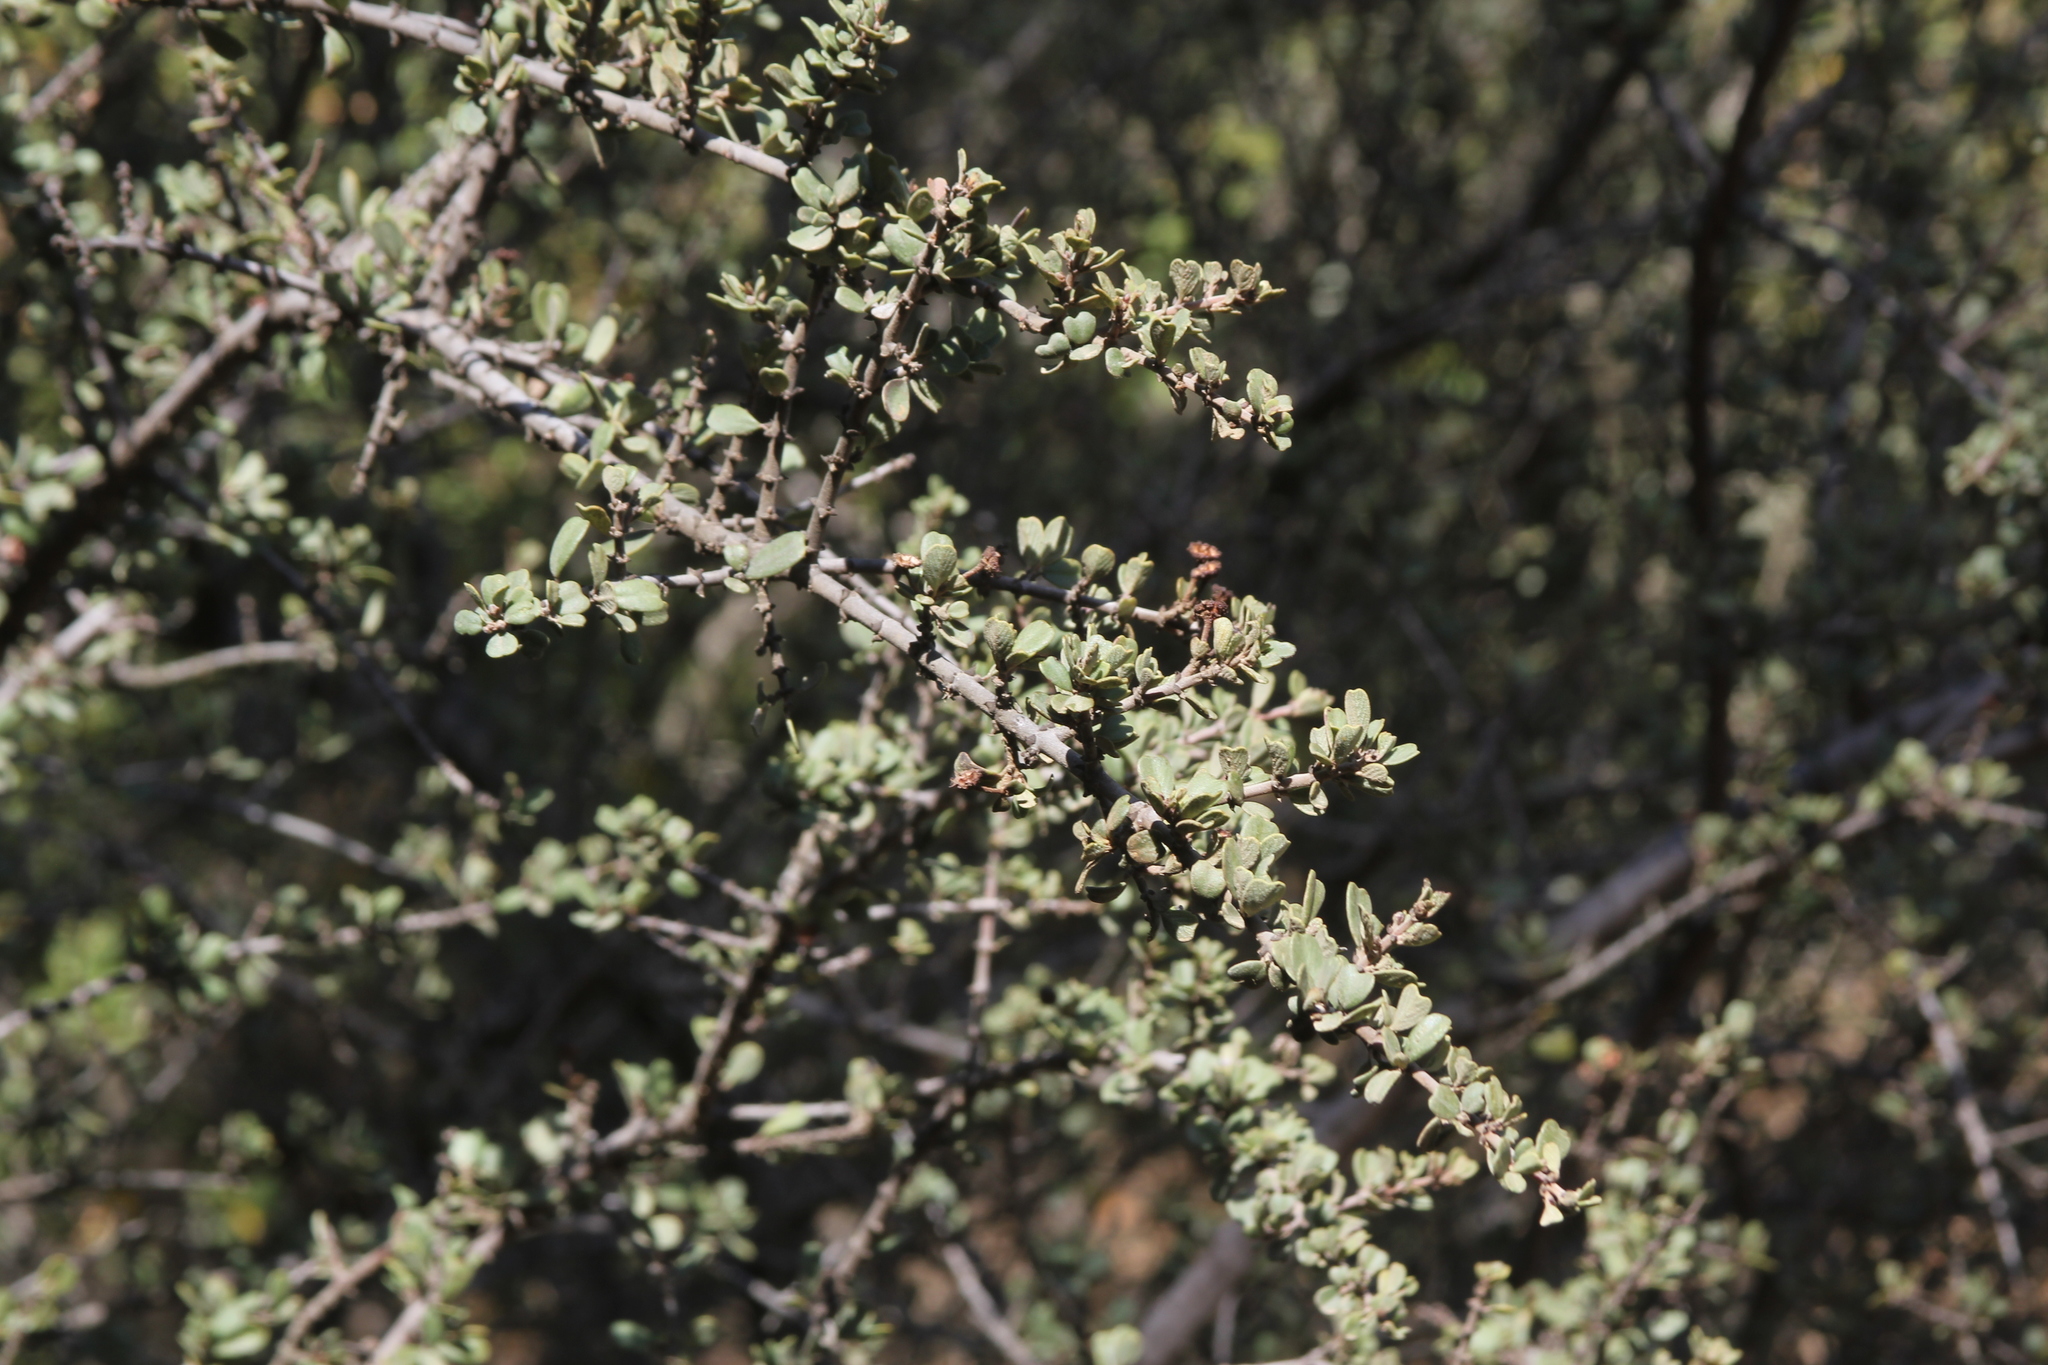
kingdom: Plantae
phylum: Tracheophyta
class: Magnoliopsida
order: Rosales
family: Rhamnaceae
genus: Ceanothus
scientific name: Ceanothus cuneatus
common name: Cuneate ceanothus
